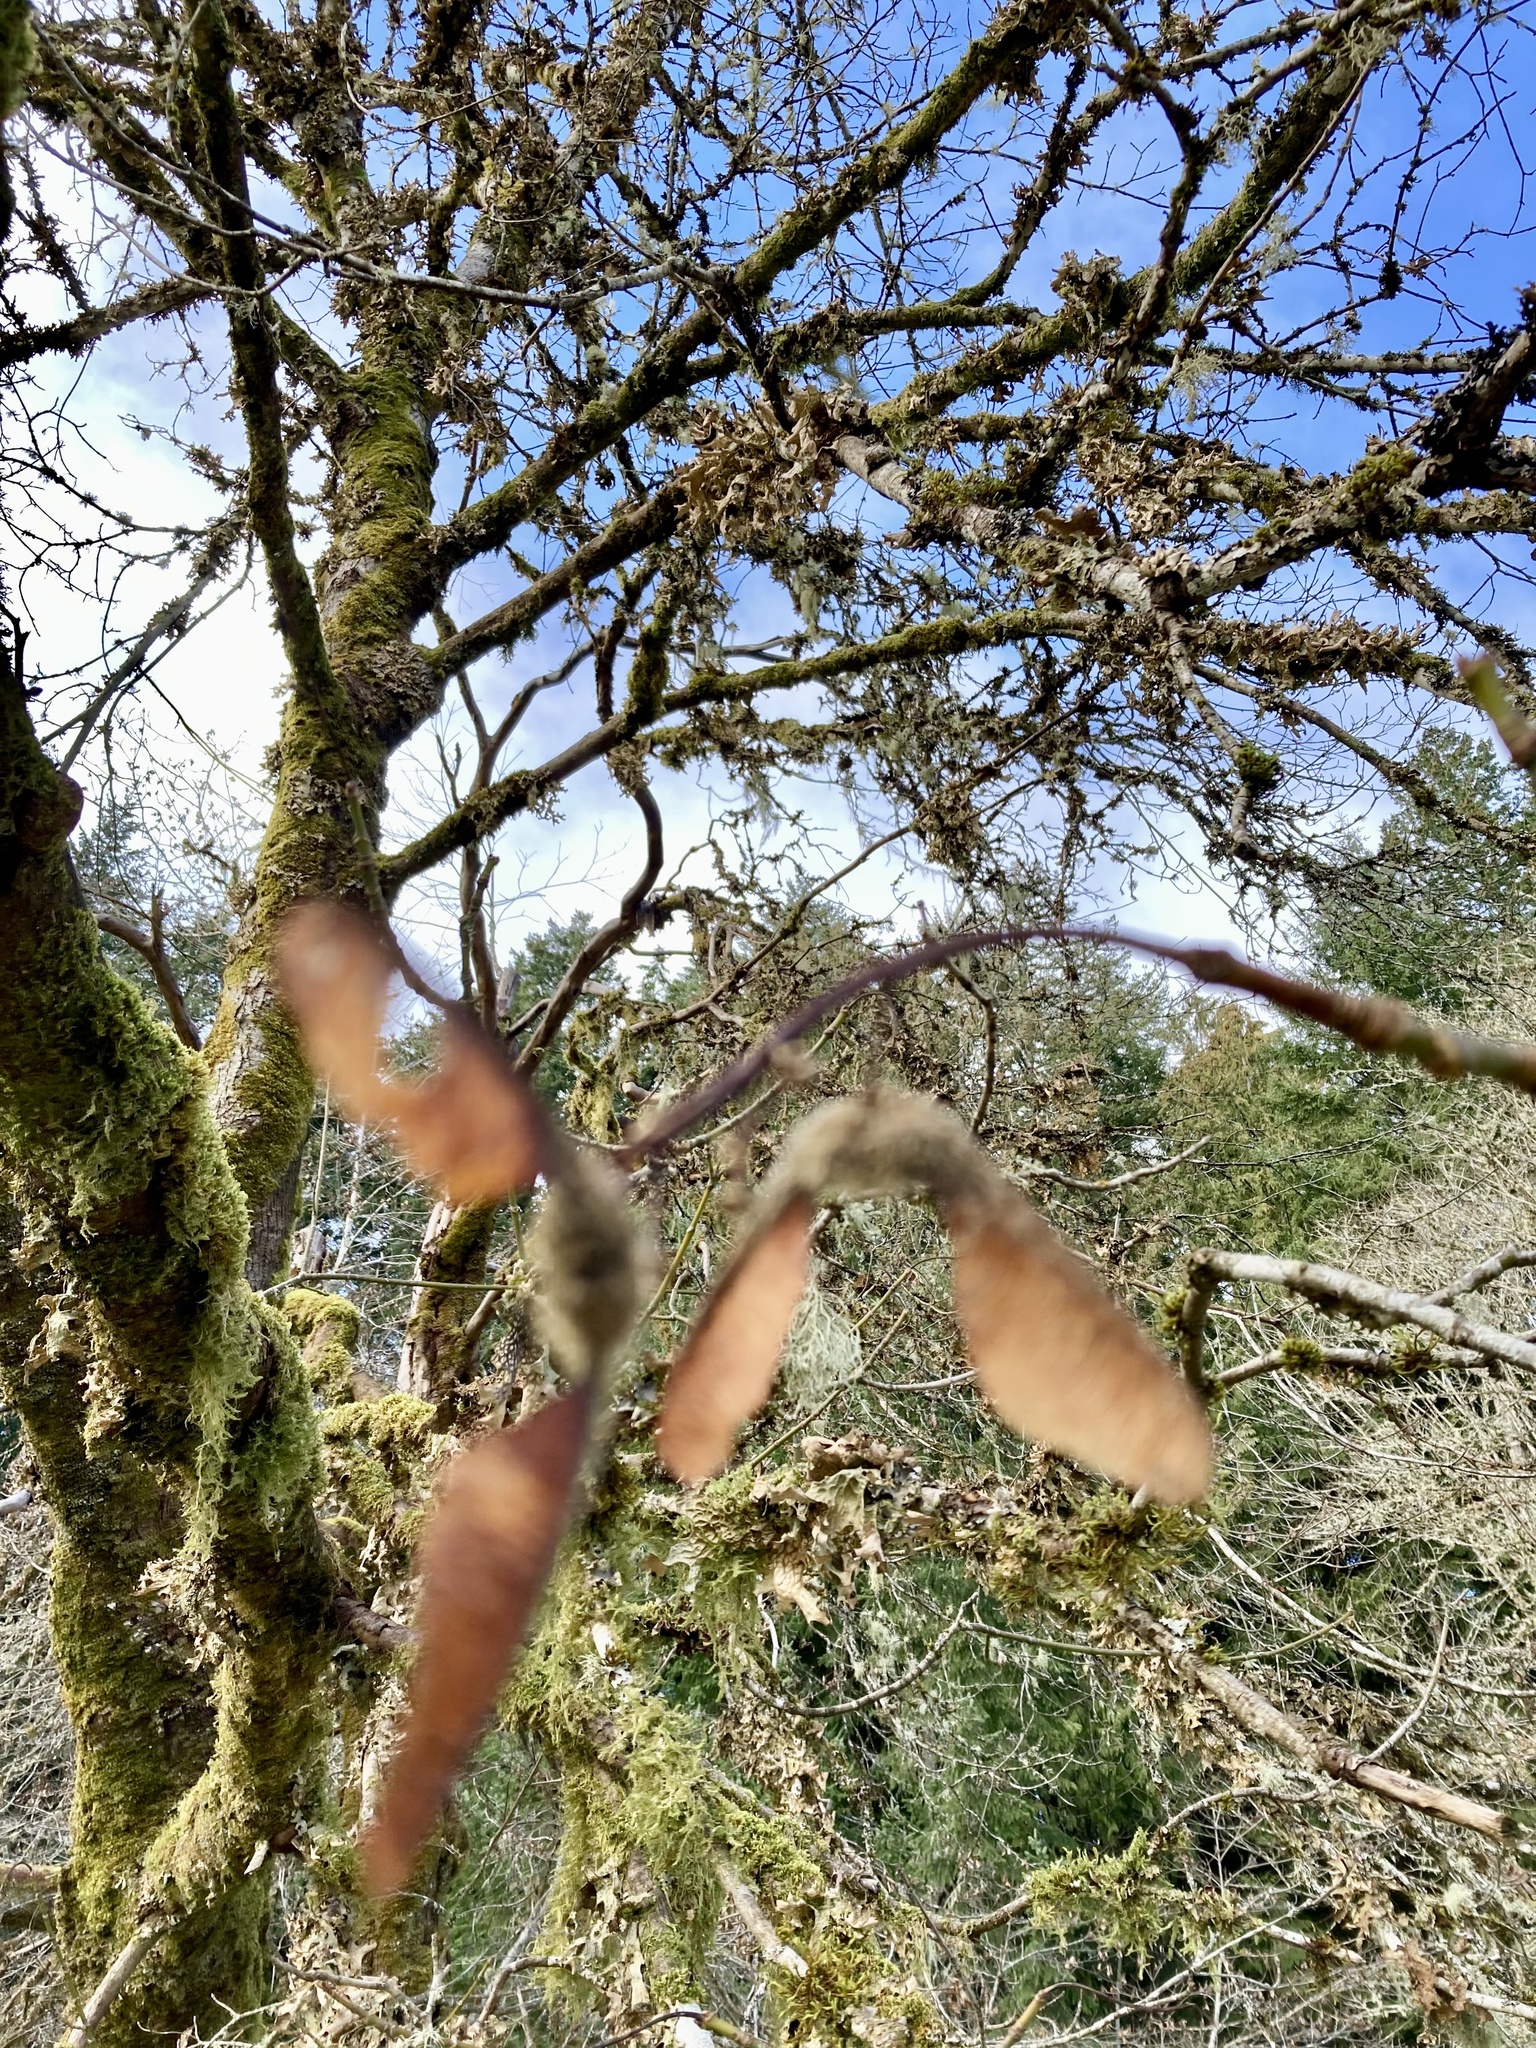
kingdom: Plantae
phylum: Tracheophyta
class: Magnoliopsida
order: Sapindales
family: Sapindaceae
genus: Acer
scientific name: Acer macrophyllum
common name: Oregon maple
